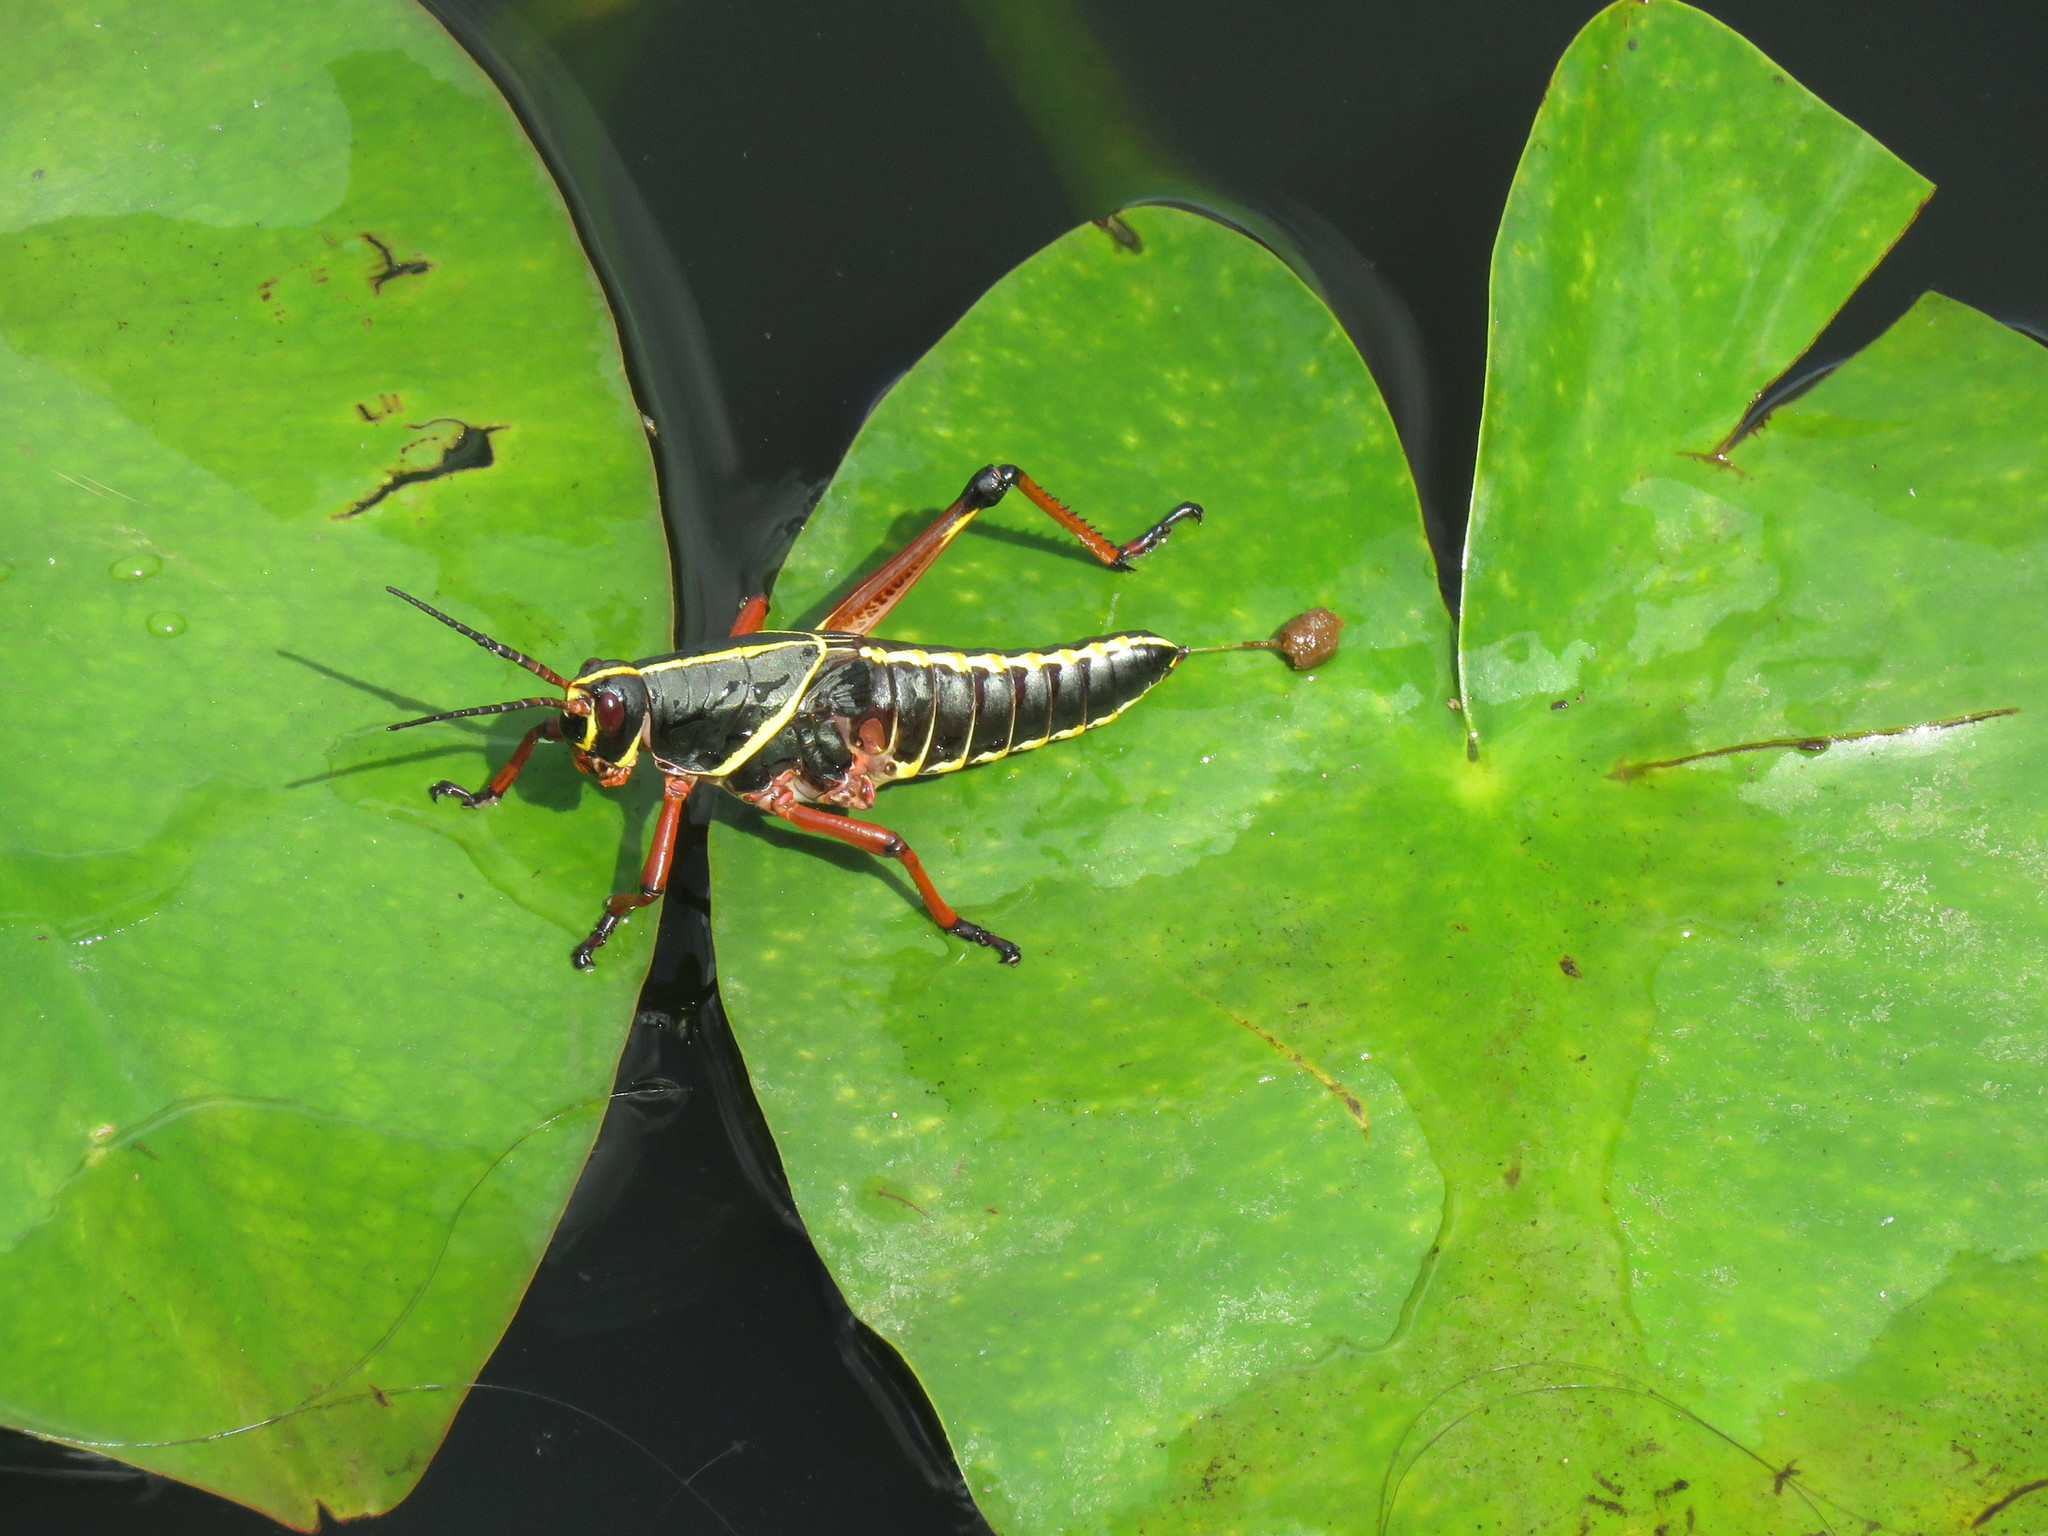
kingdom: Animalia
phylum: Arthropoda
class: Insecta
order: Orthoptera
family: Romaleidae
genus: Romalea
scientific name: Romalea microptera
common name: Eastern lubber grasshopper
